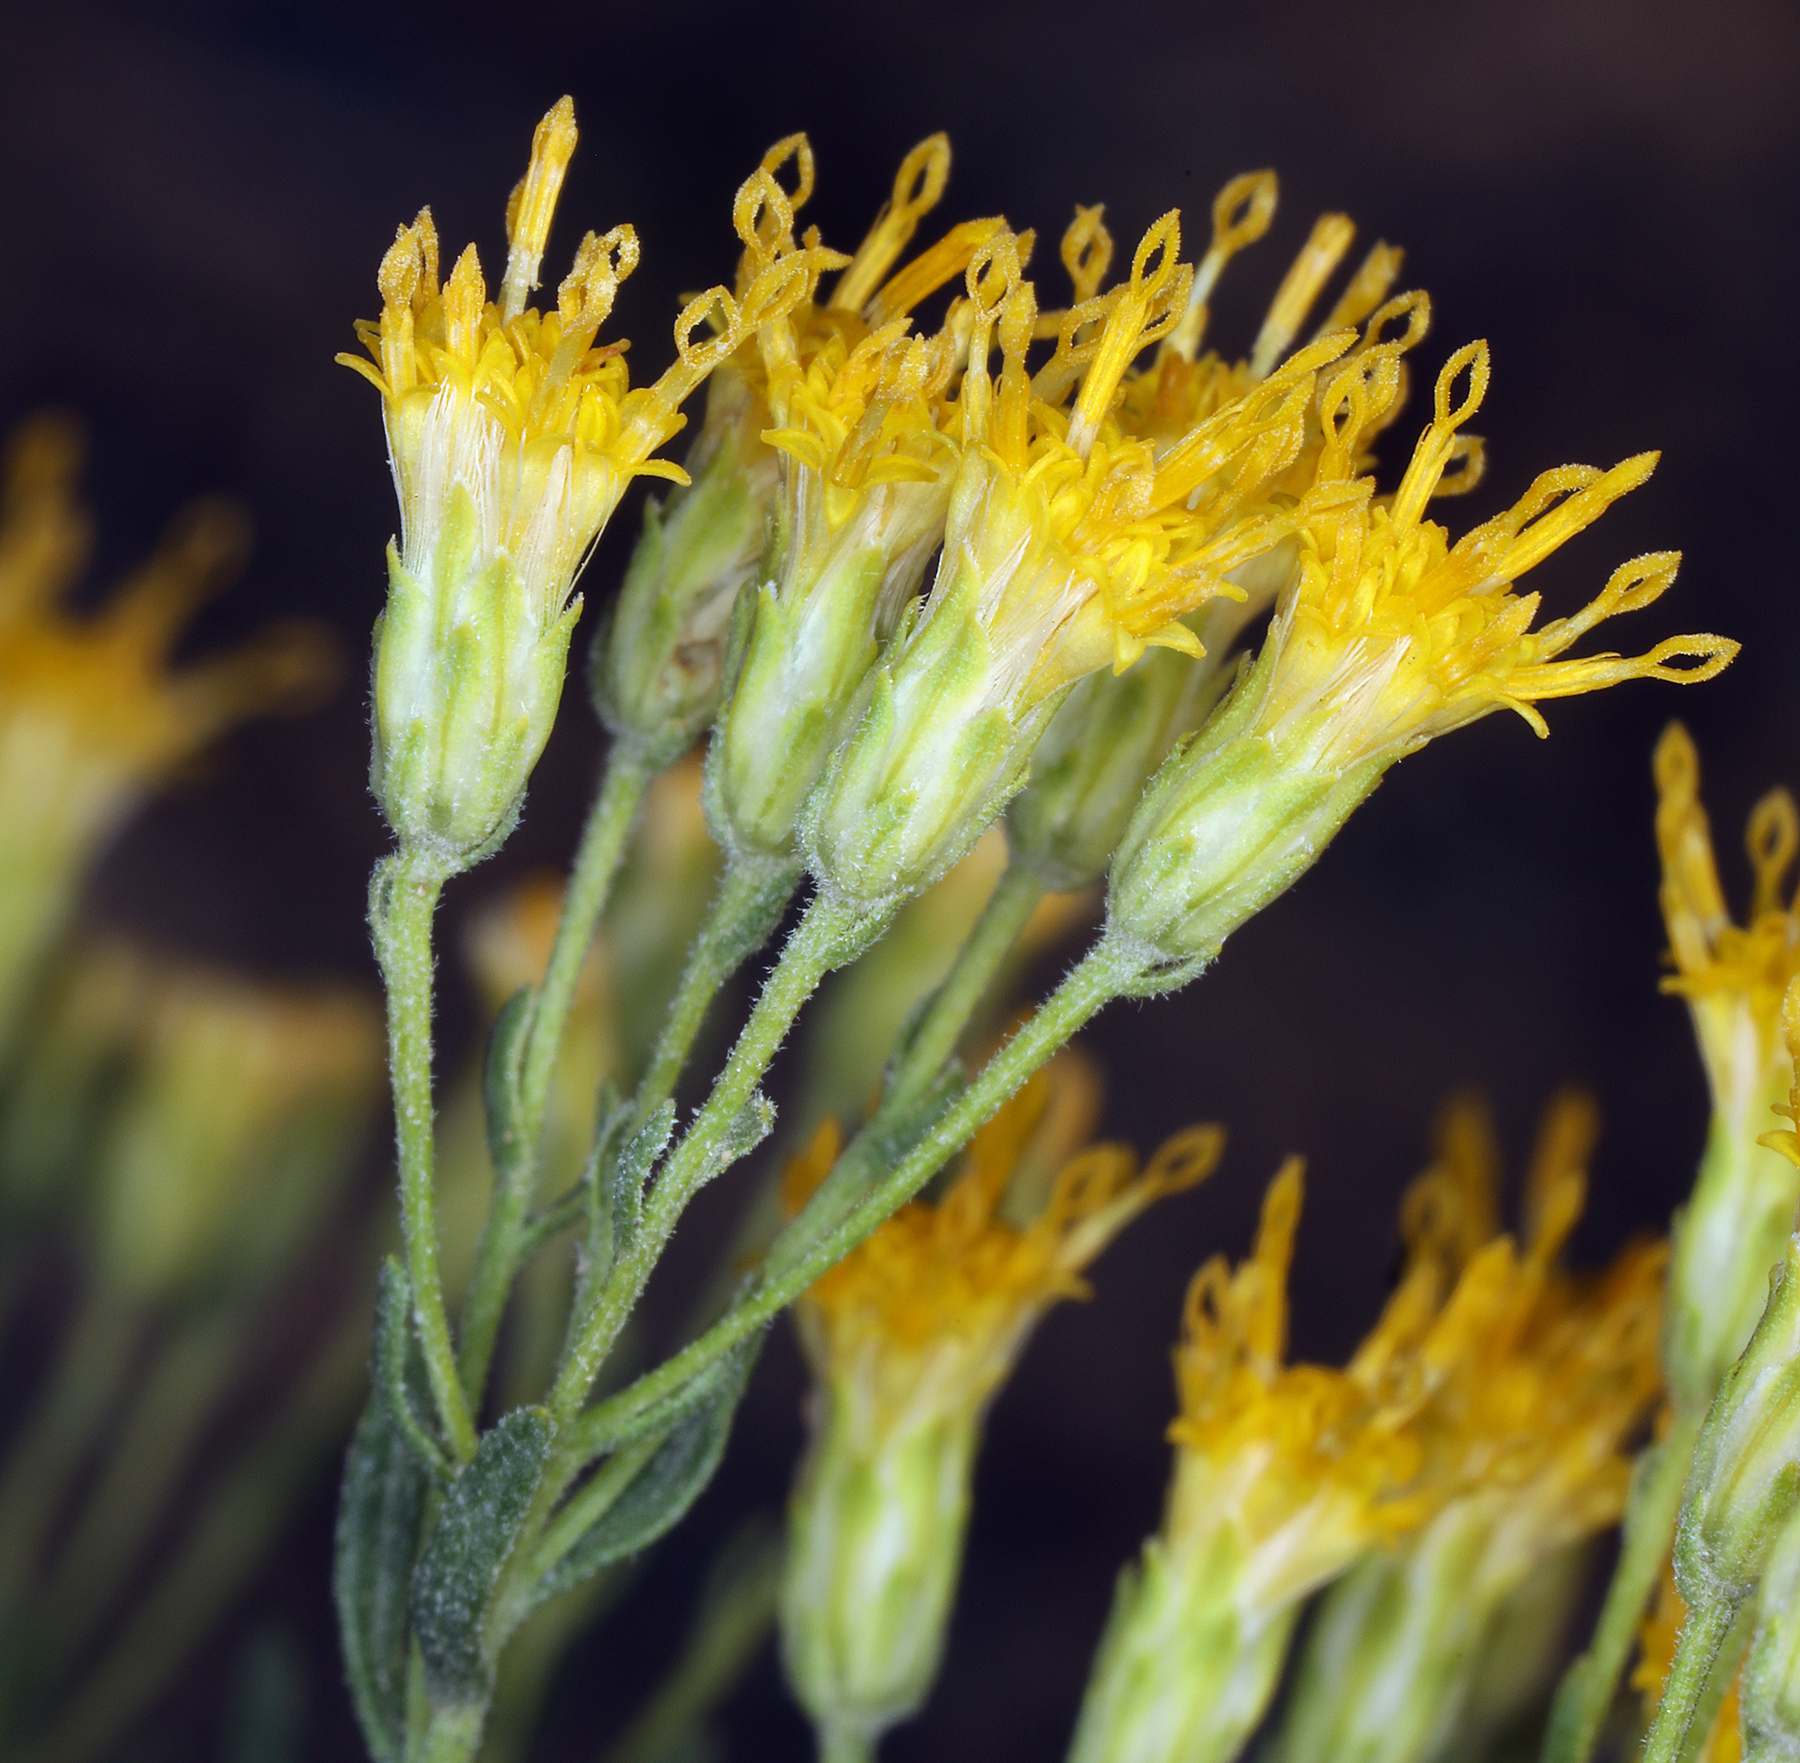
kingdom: Plantae
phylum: Tracheophyta
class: Magnoliopsida
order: Asterales
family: Asteraceae
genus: Ericameria
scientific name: Ericameria cooperi
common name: Cooper's goldenbush
